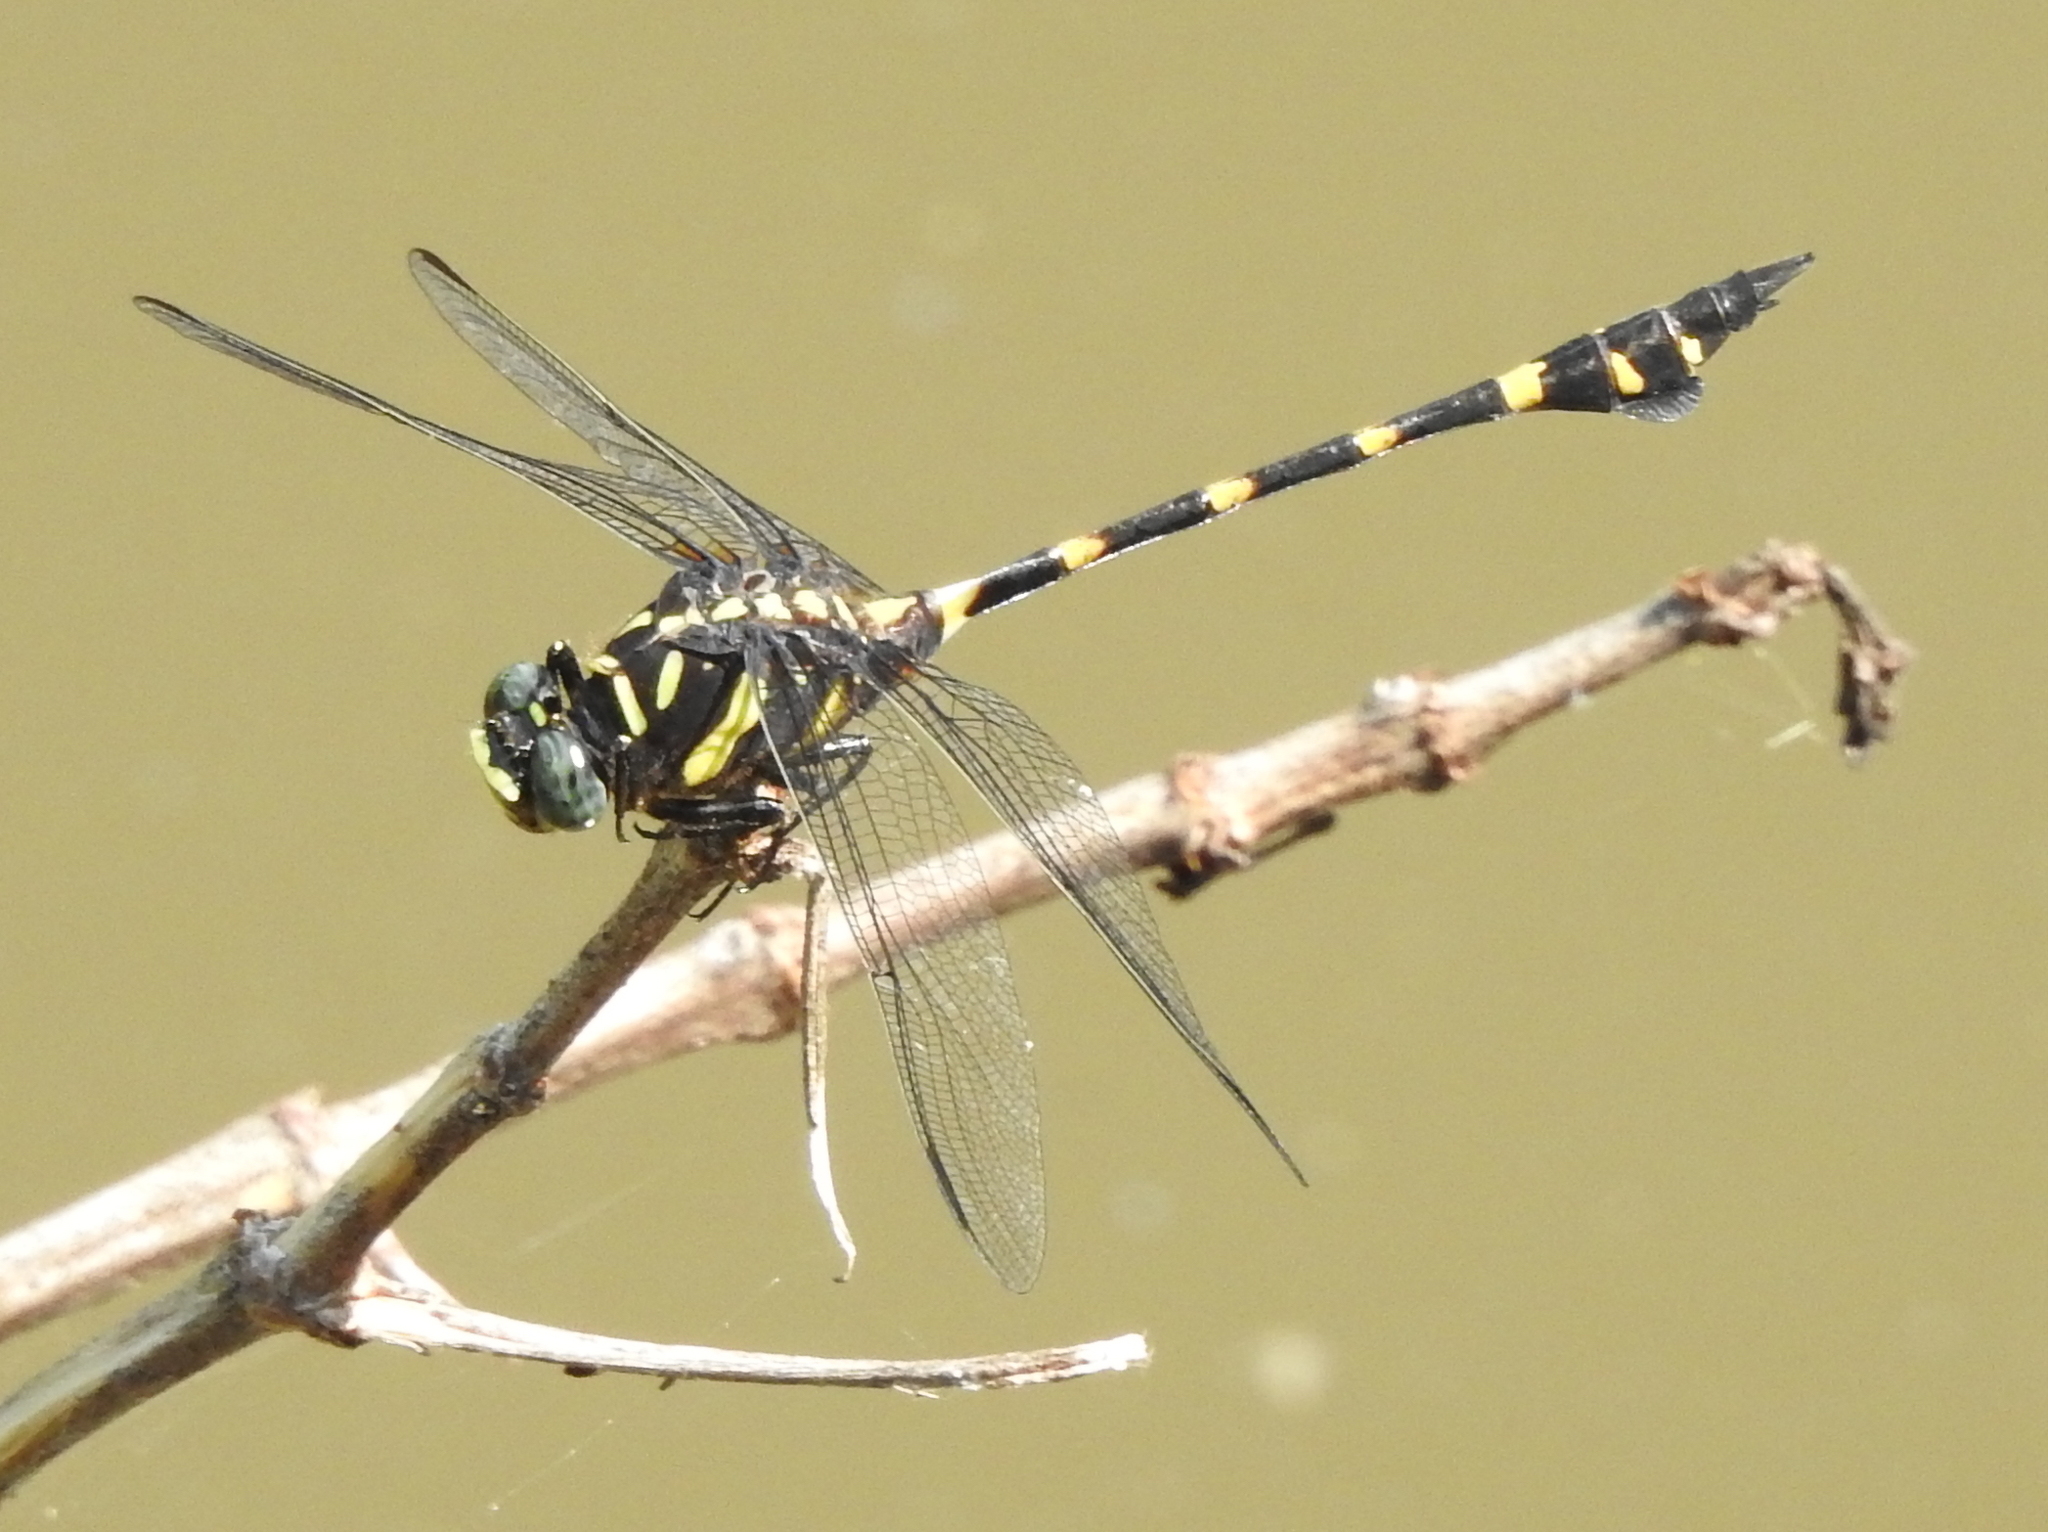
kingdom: Animalia
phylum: Arthropoda
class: Insecta
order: Odonata
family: Gomphidae
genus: Ictinogomphus
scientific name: Ictinogomphus decoratus
